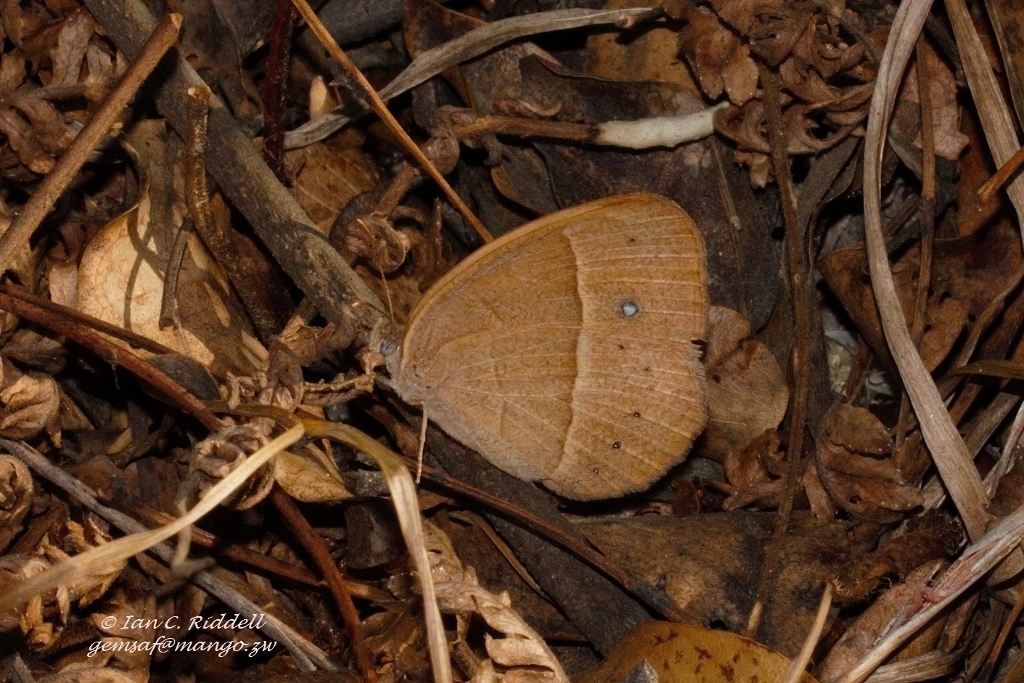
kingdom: Animalia
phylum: Arthropoda
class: Insecta
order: Lepidoptera
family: Nymphalidae
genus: Brakefieldia
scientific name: Brakefieldia simonsii
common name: Pale patroller
